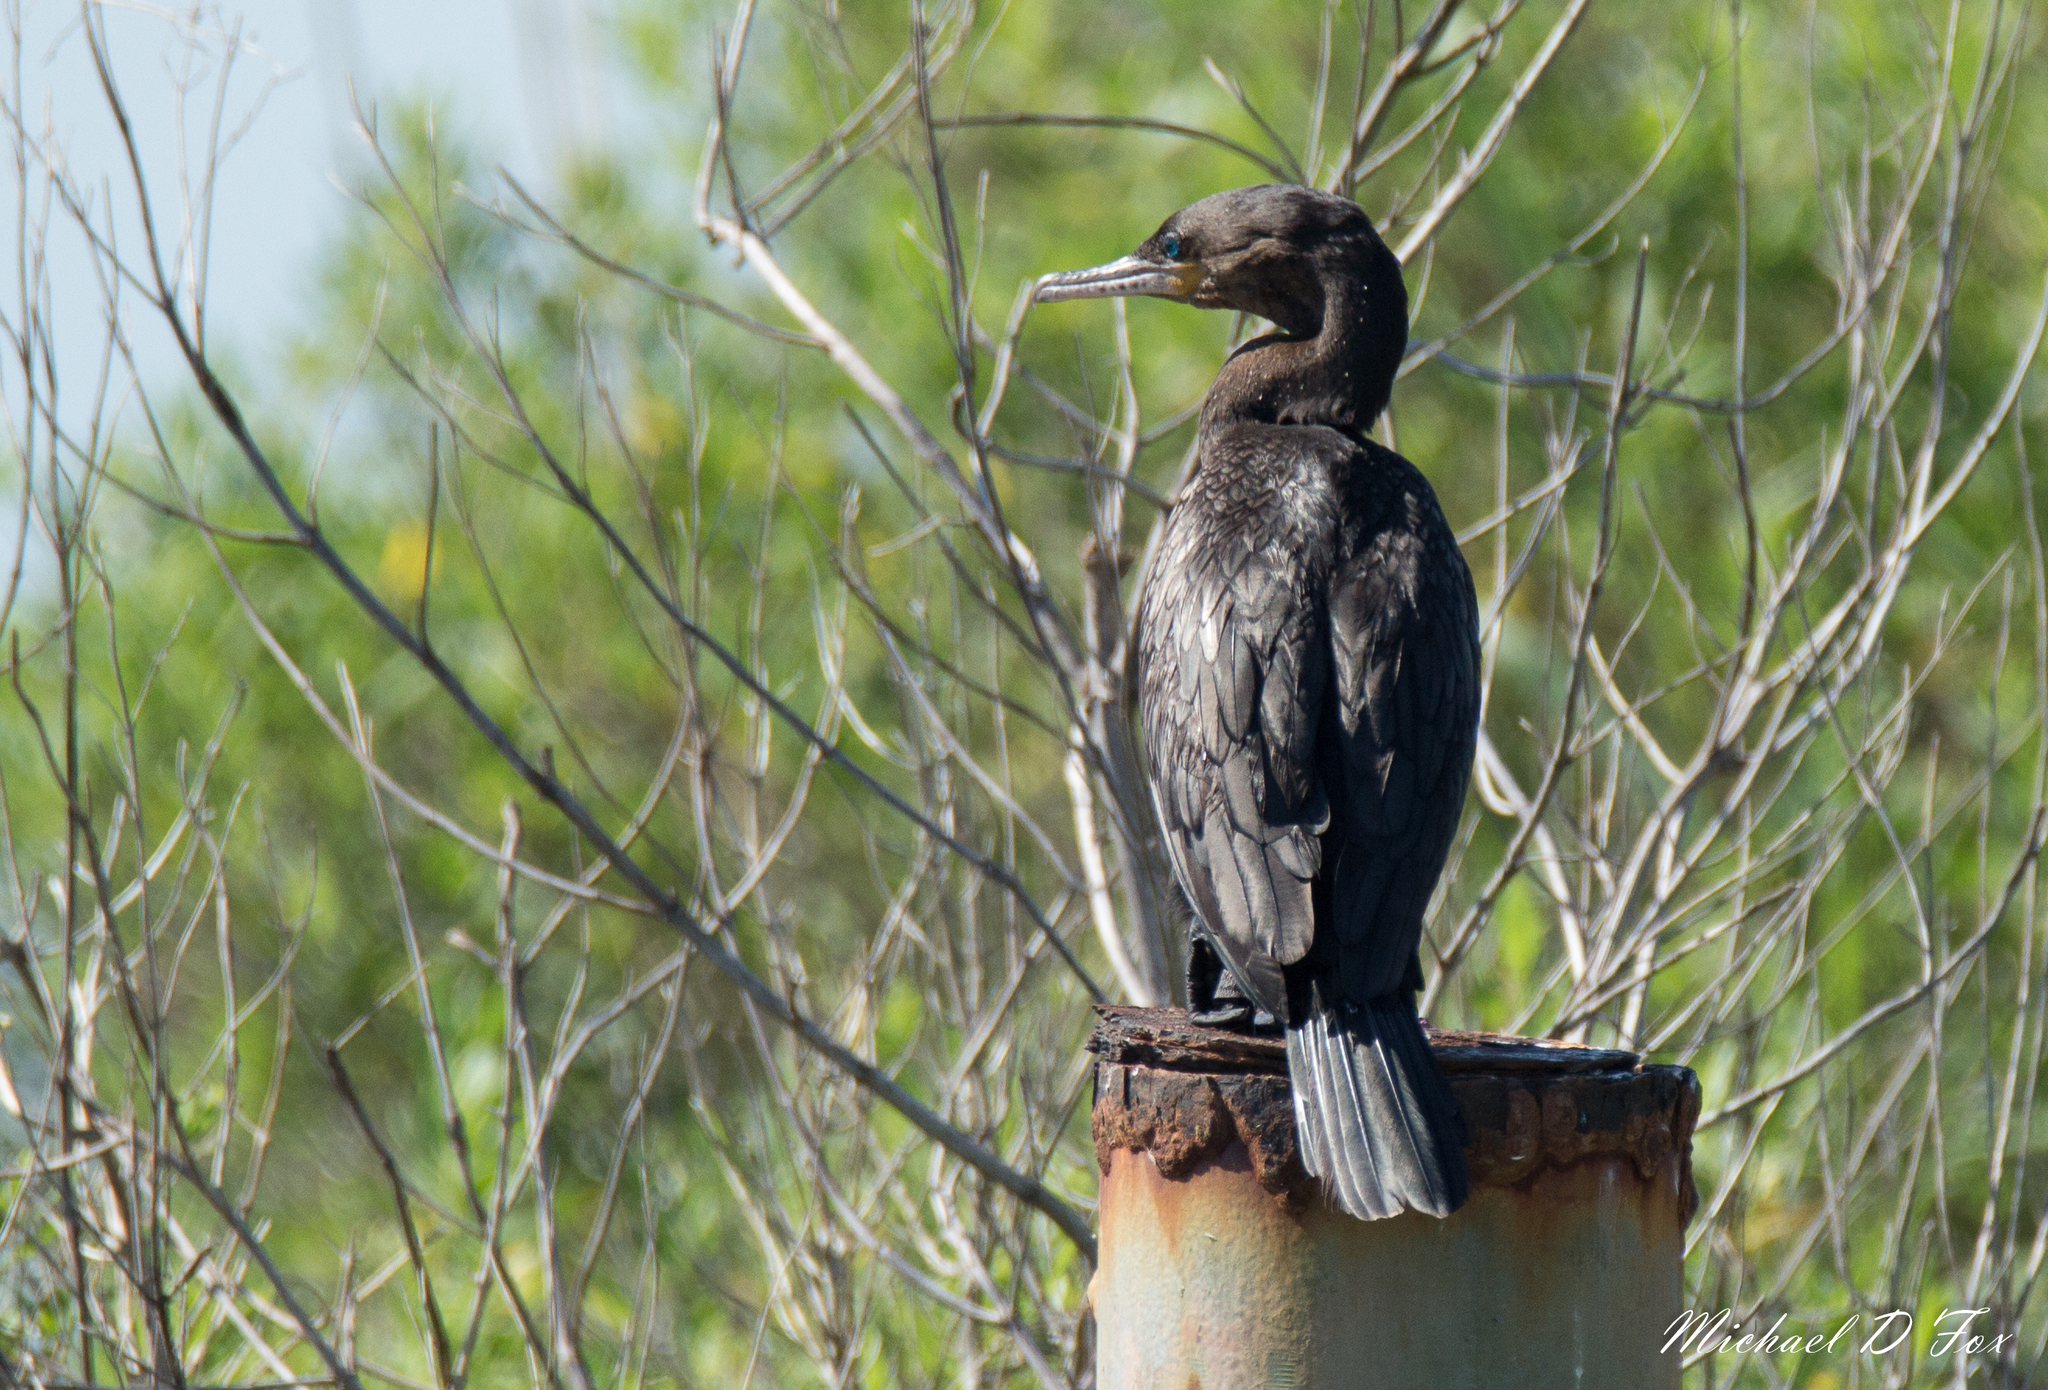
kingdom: Animalia
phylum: Chordata
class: Aves
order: Suliformes
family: Phalacrocoracidae
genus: Phalacrocorax
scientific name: Phalacrocorax brasilianus
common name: Neotropic cormorant
